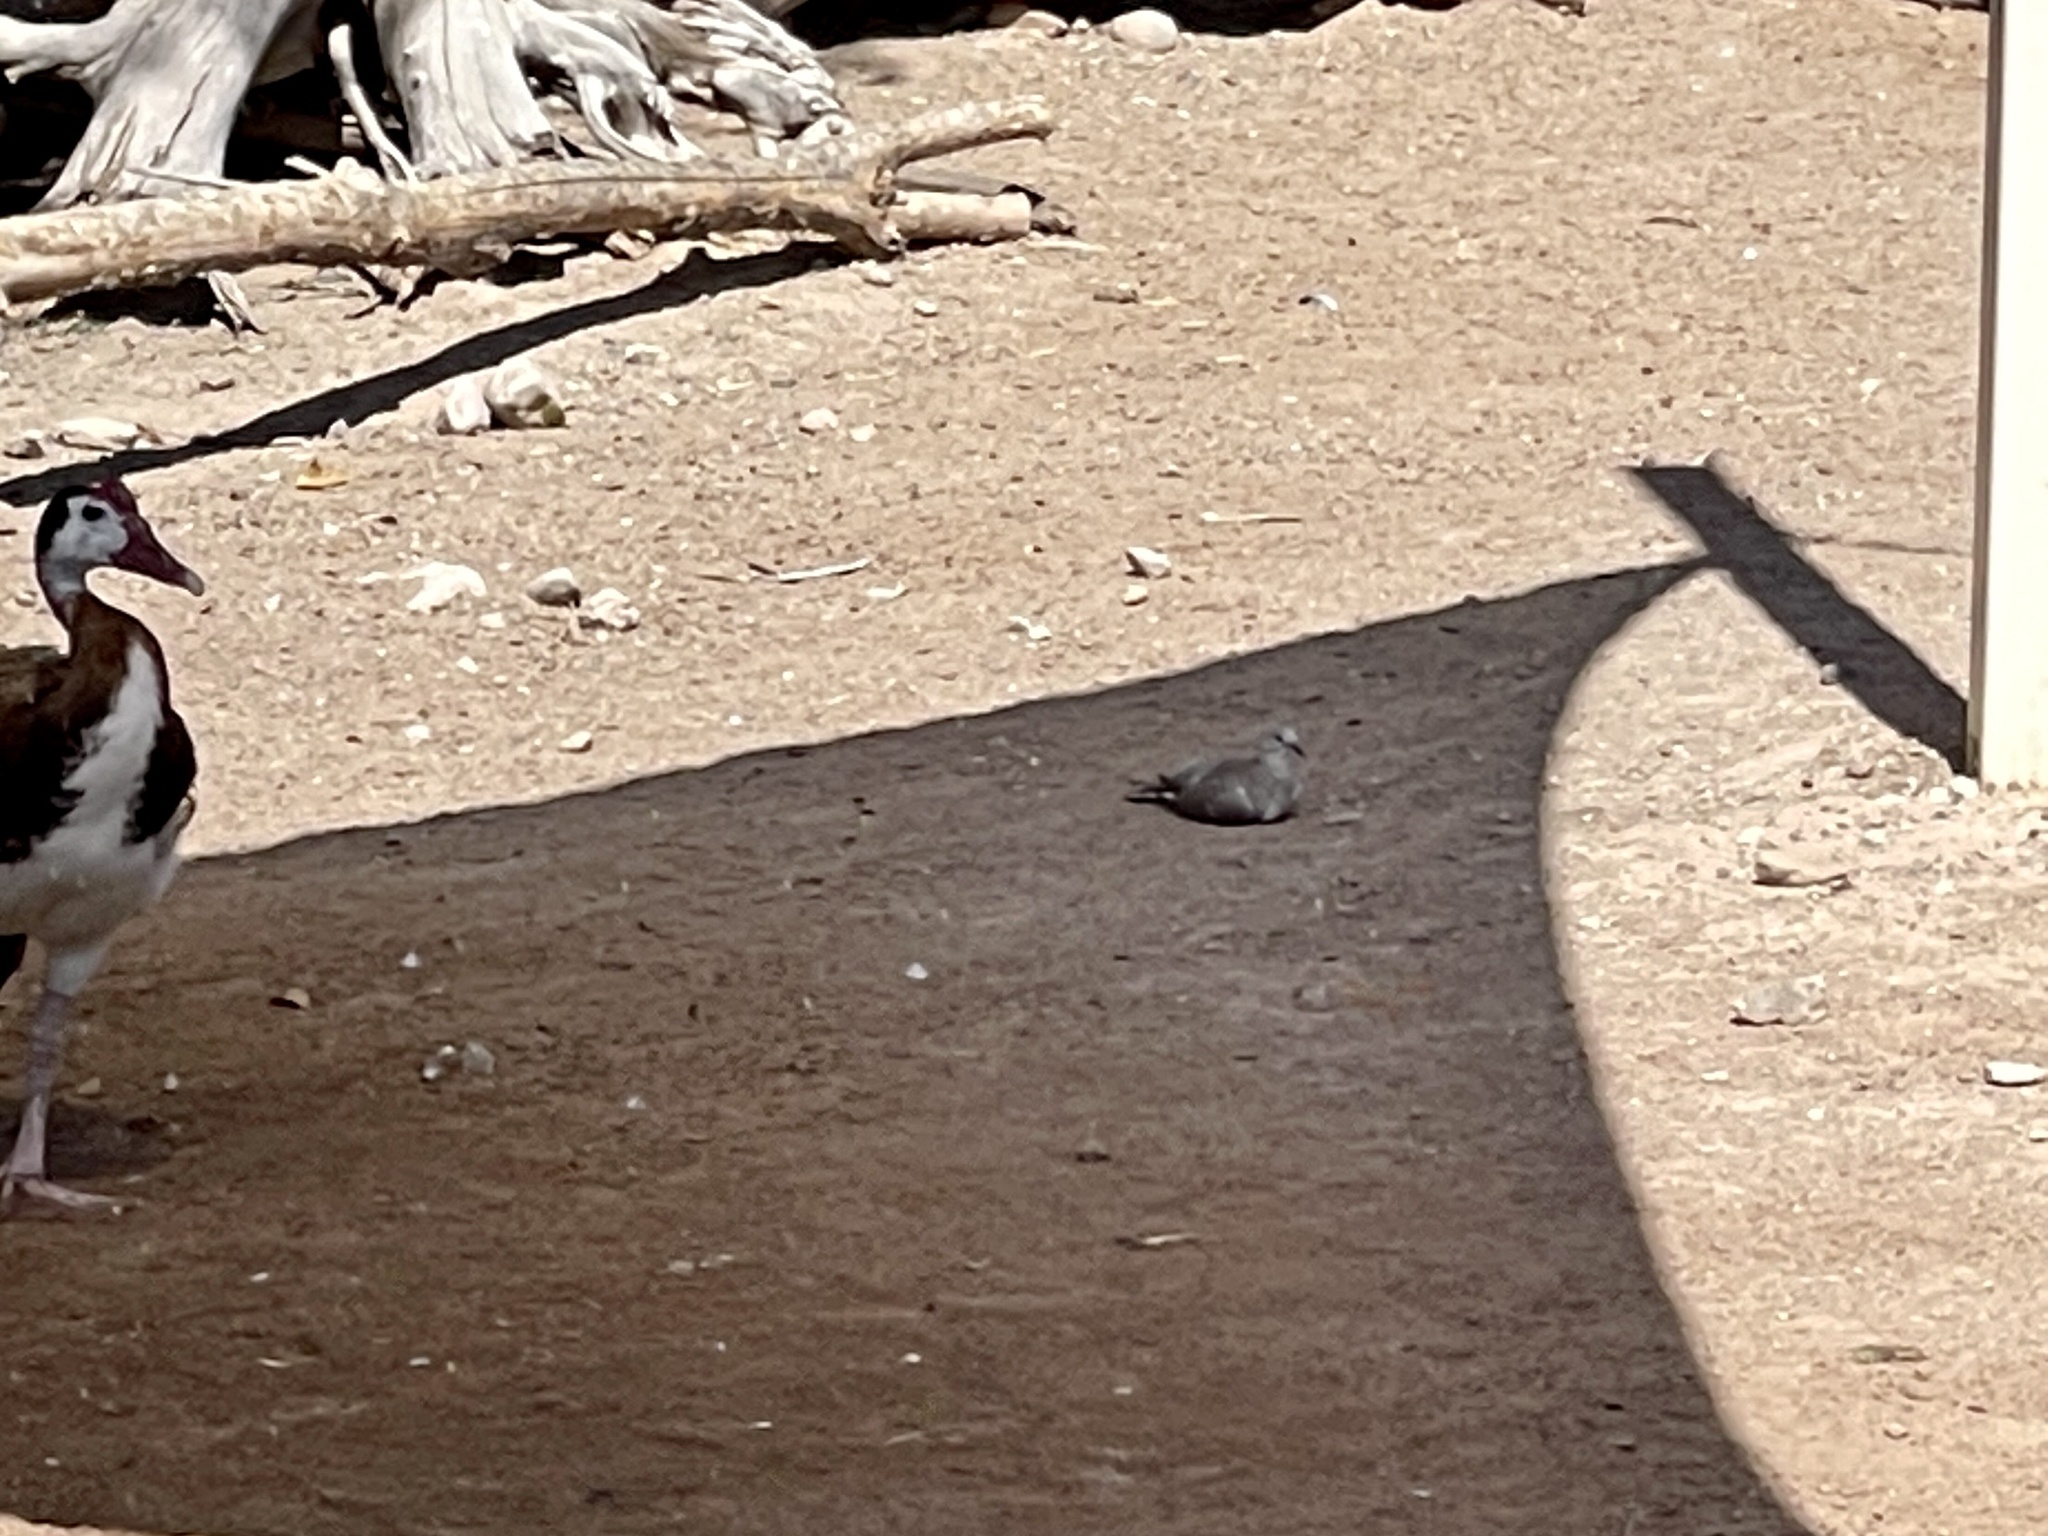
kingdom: Animalia
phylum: Chordata
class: Aves
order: Columbiformes
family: Columbidae
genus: Streptopelia
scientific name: Streptopelia decaocto
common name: Eurasian collared dove
